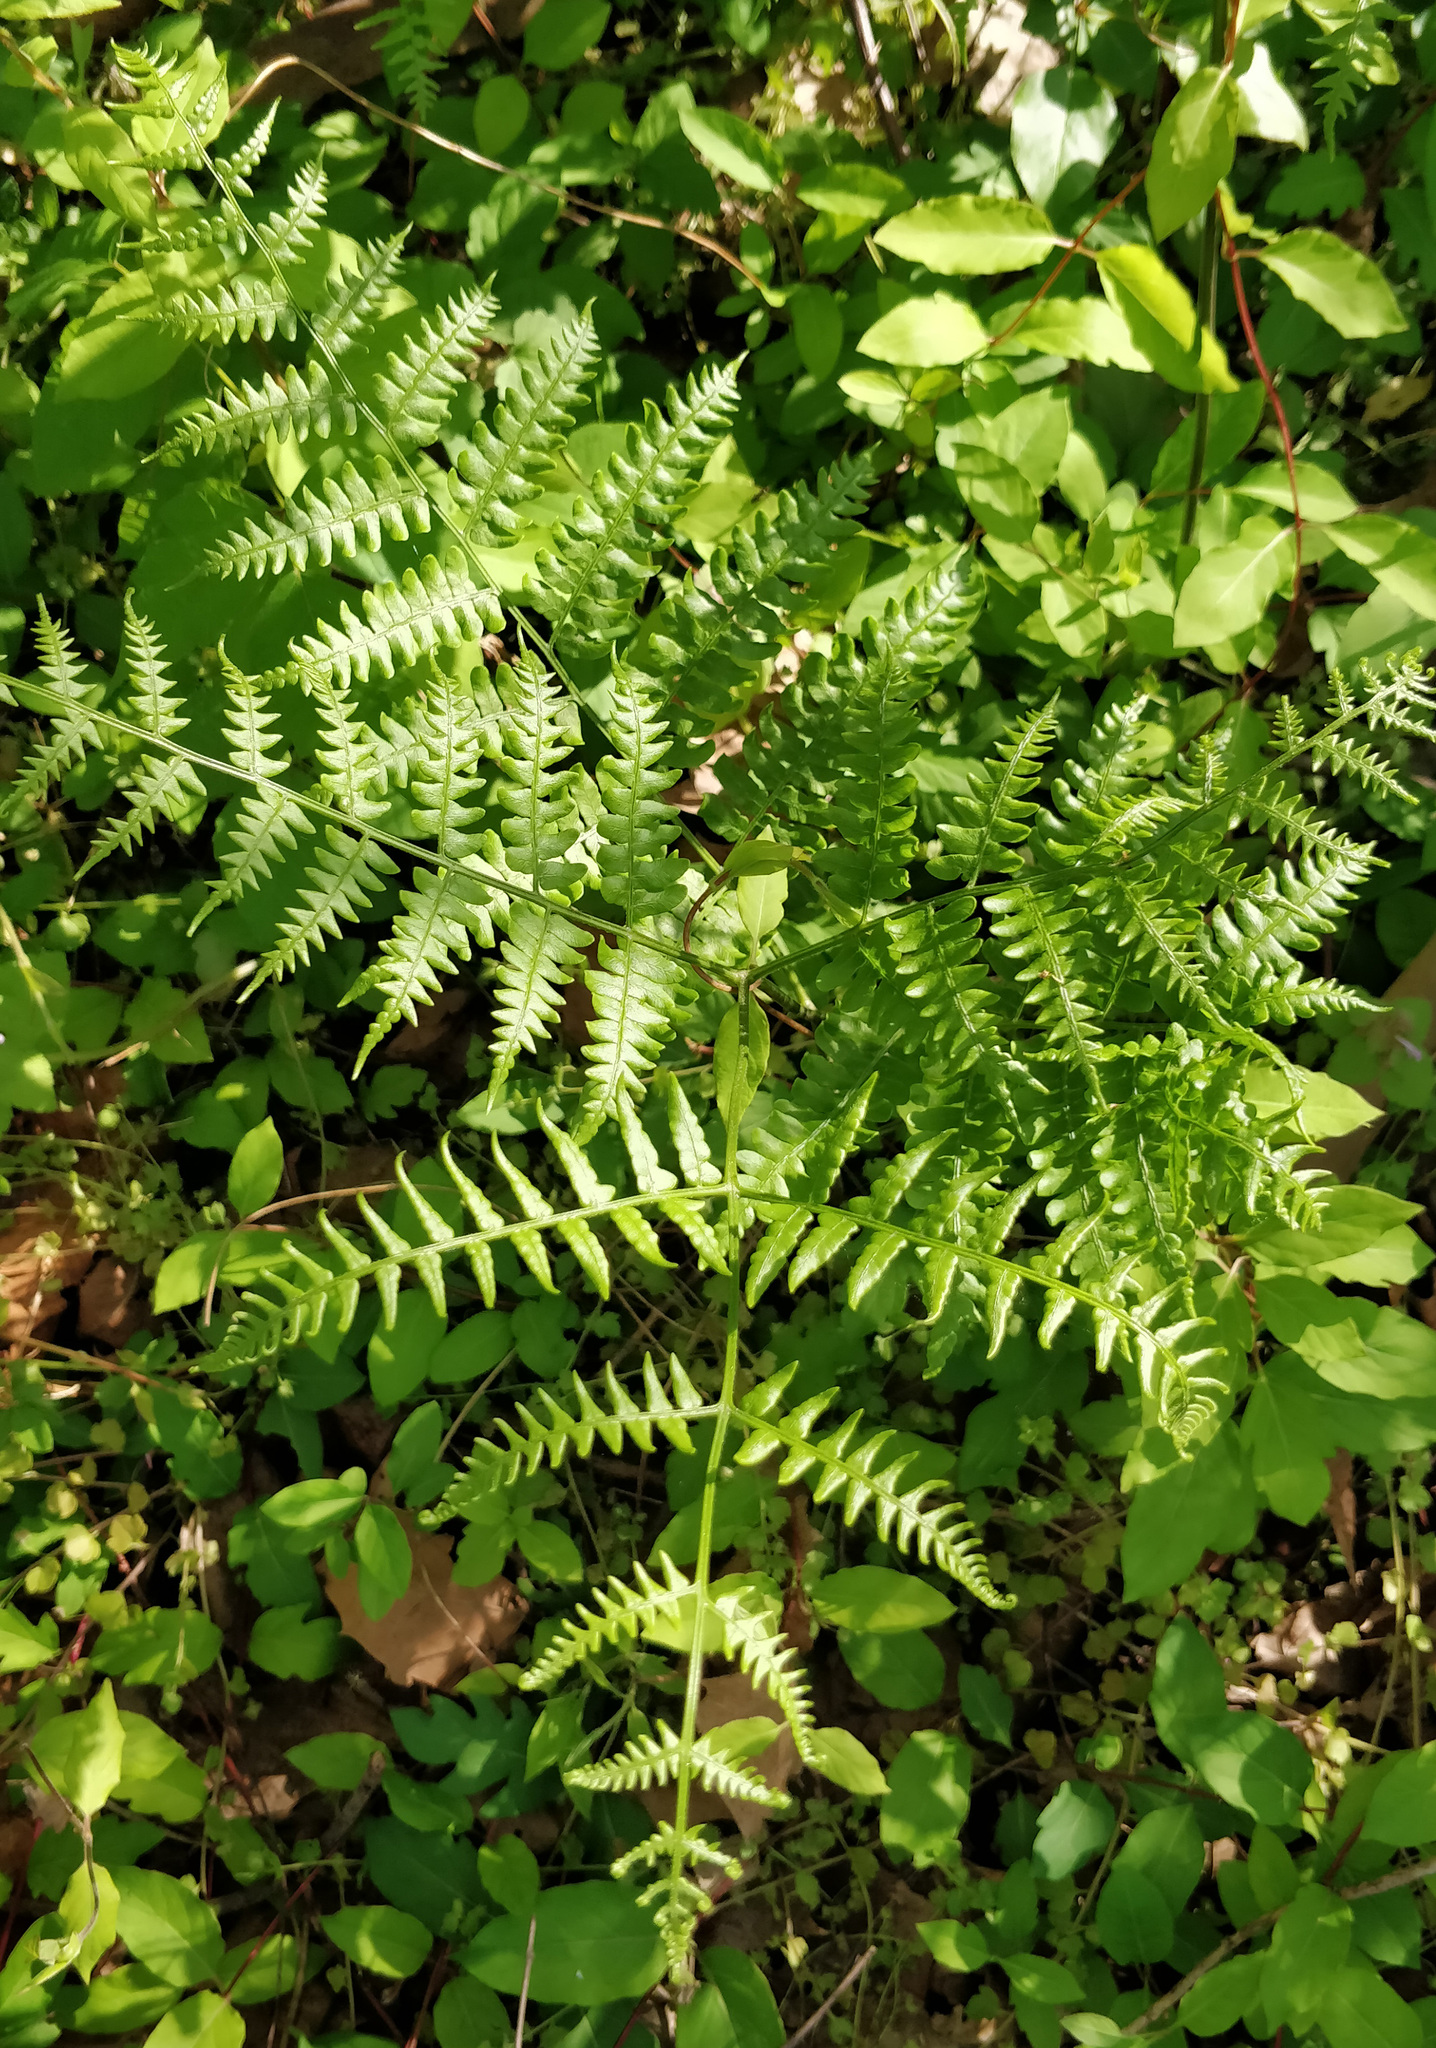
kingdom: Plantae
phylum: Tracheophyta
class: Polypodiopsida
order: Polypodiales
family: Dennstaedtiaceae
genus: Pteridium
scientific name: Pteridium aquilinum
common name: Bracken
